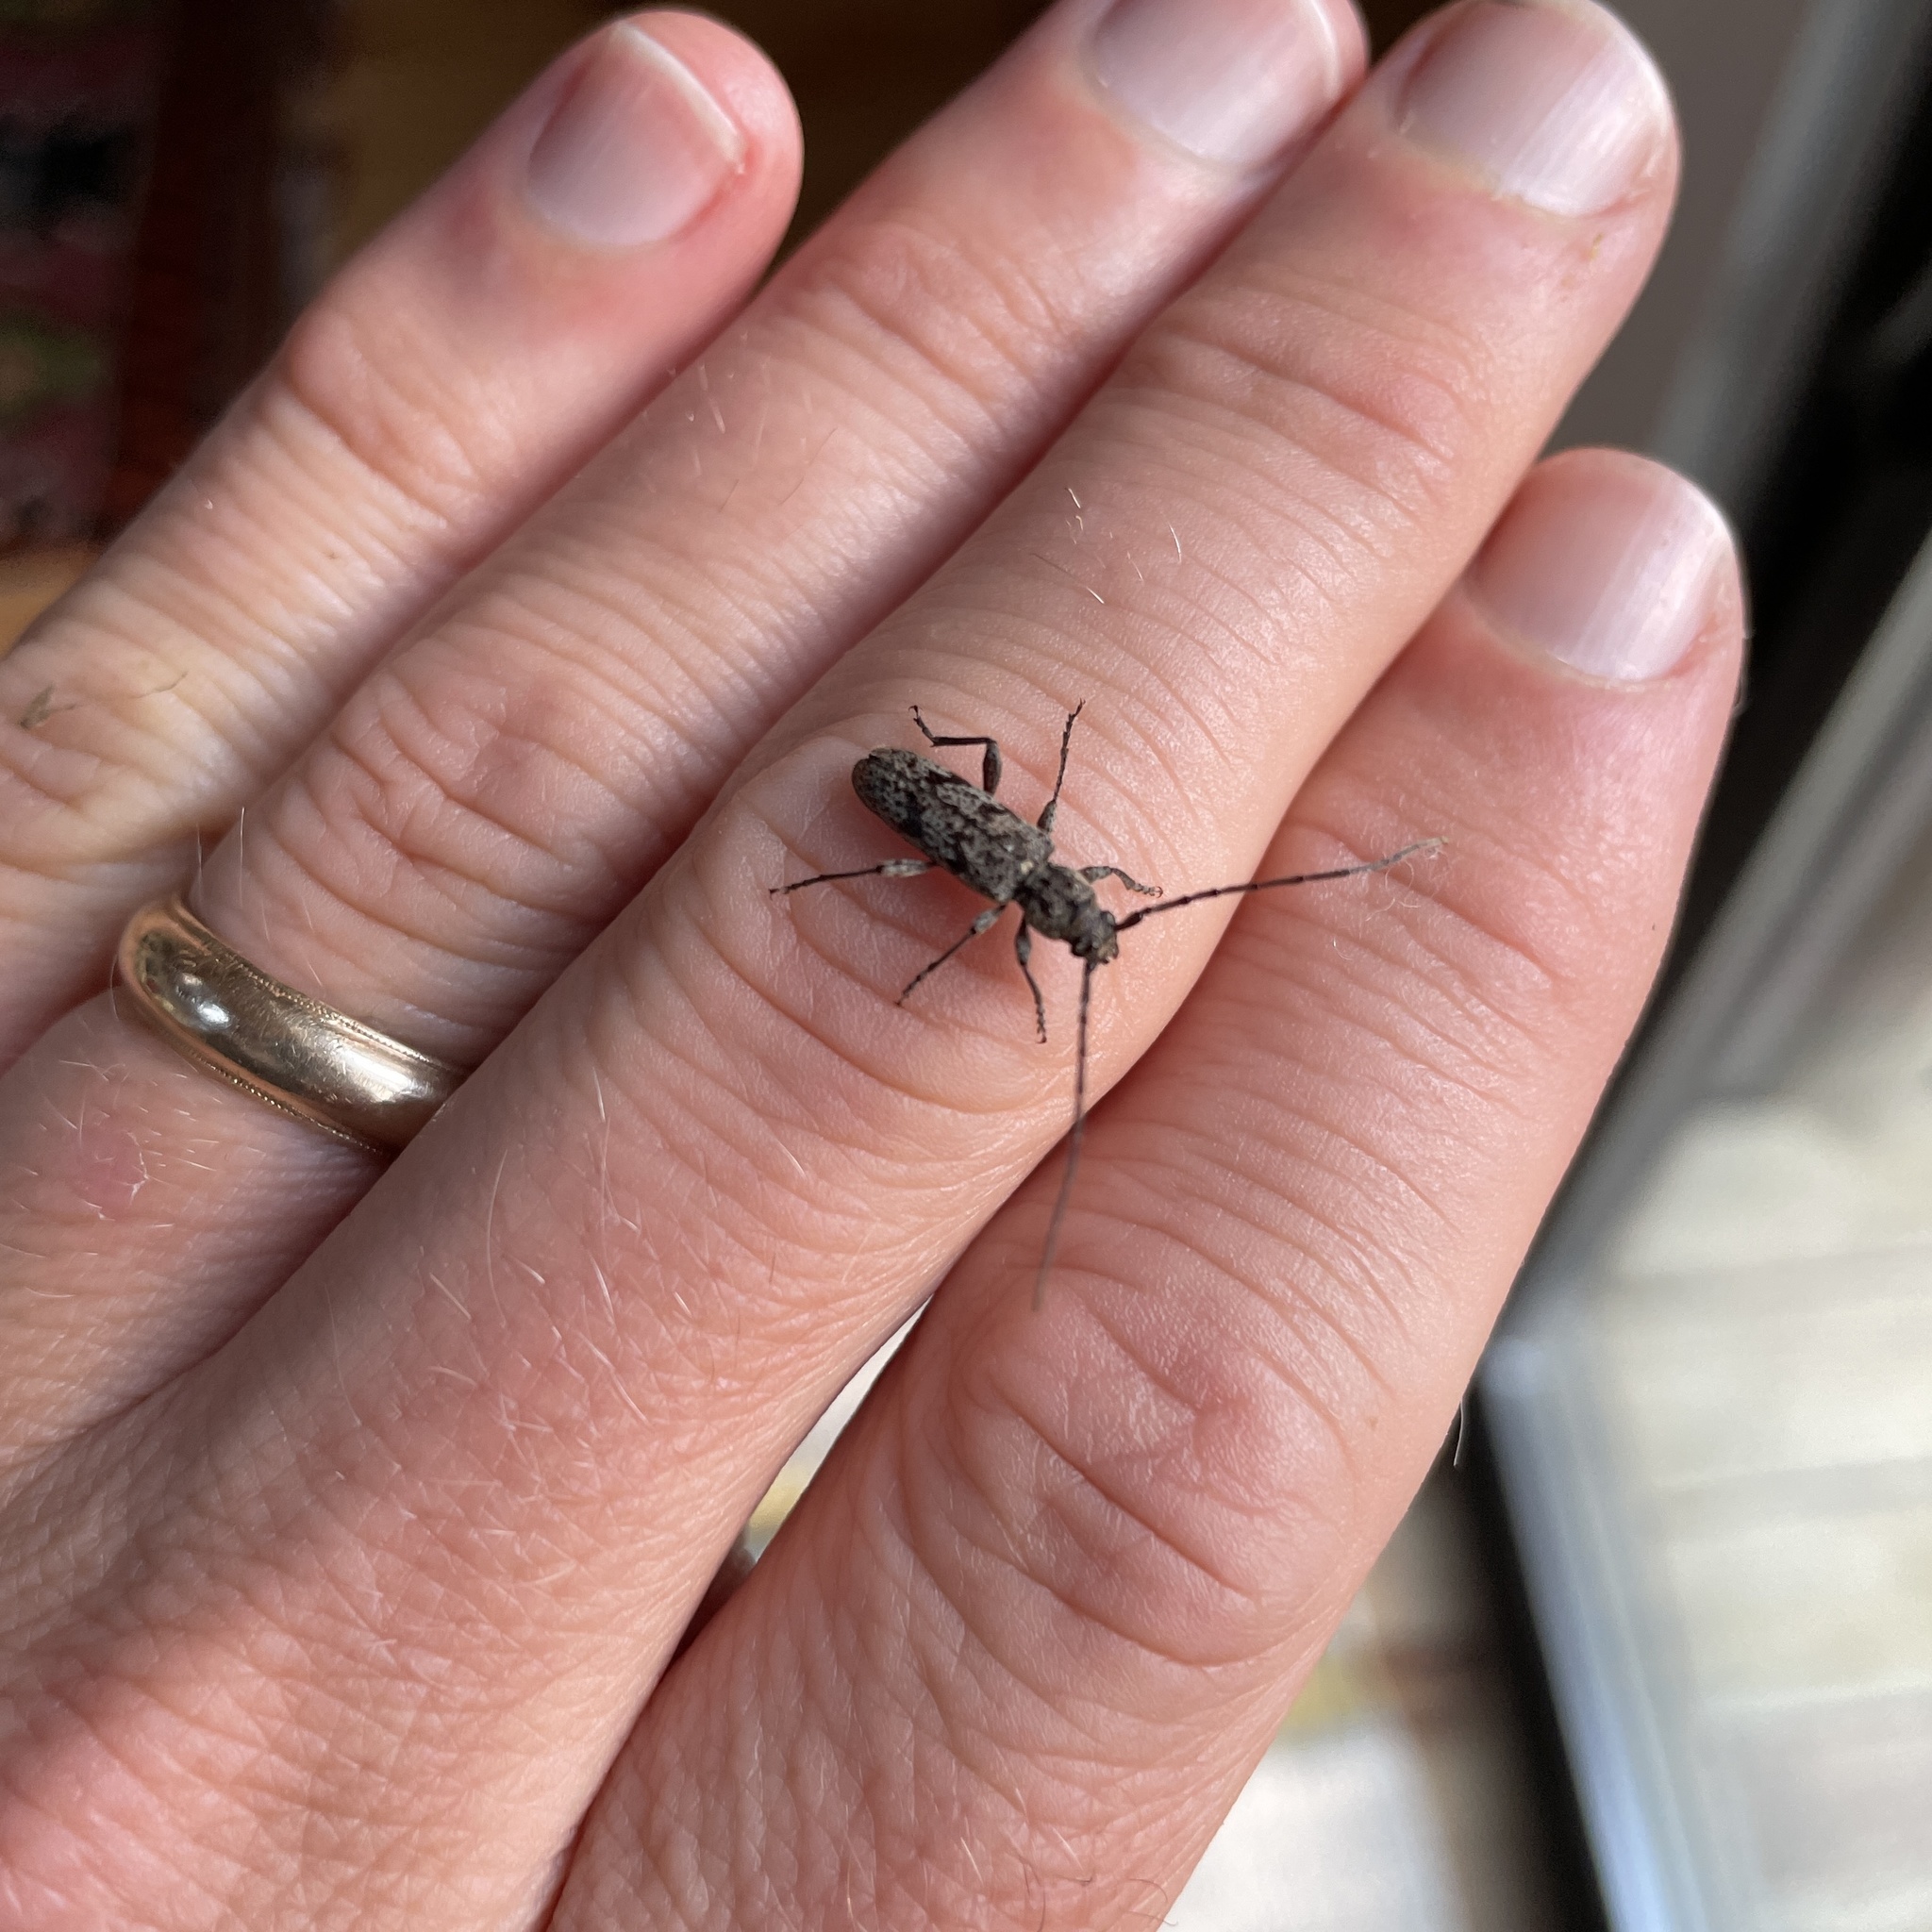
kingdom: Animalia
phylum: Arthropoda
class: Insecta
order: Coleoptera
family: Cerambycidae
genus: Brothylus
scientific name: Brothylus conspersus
